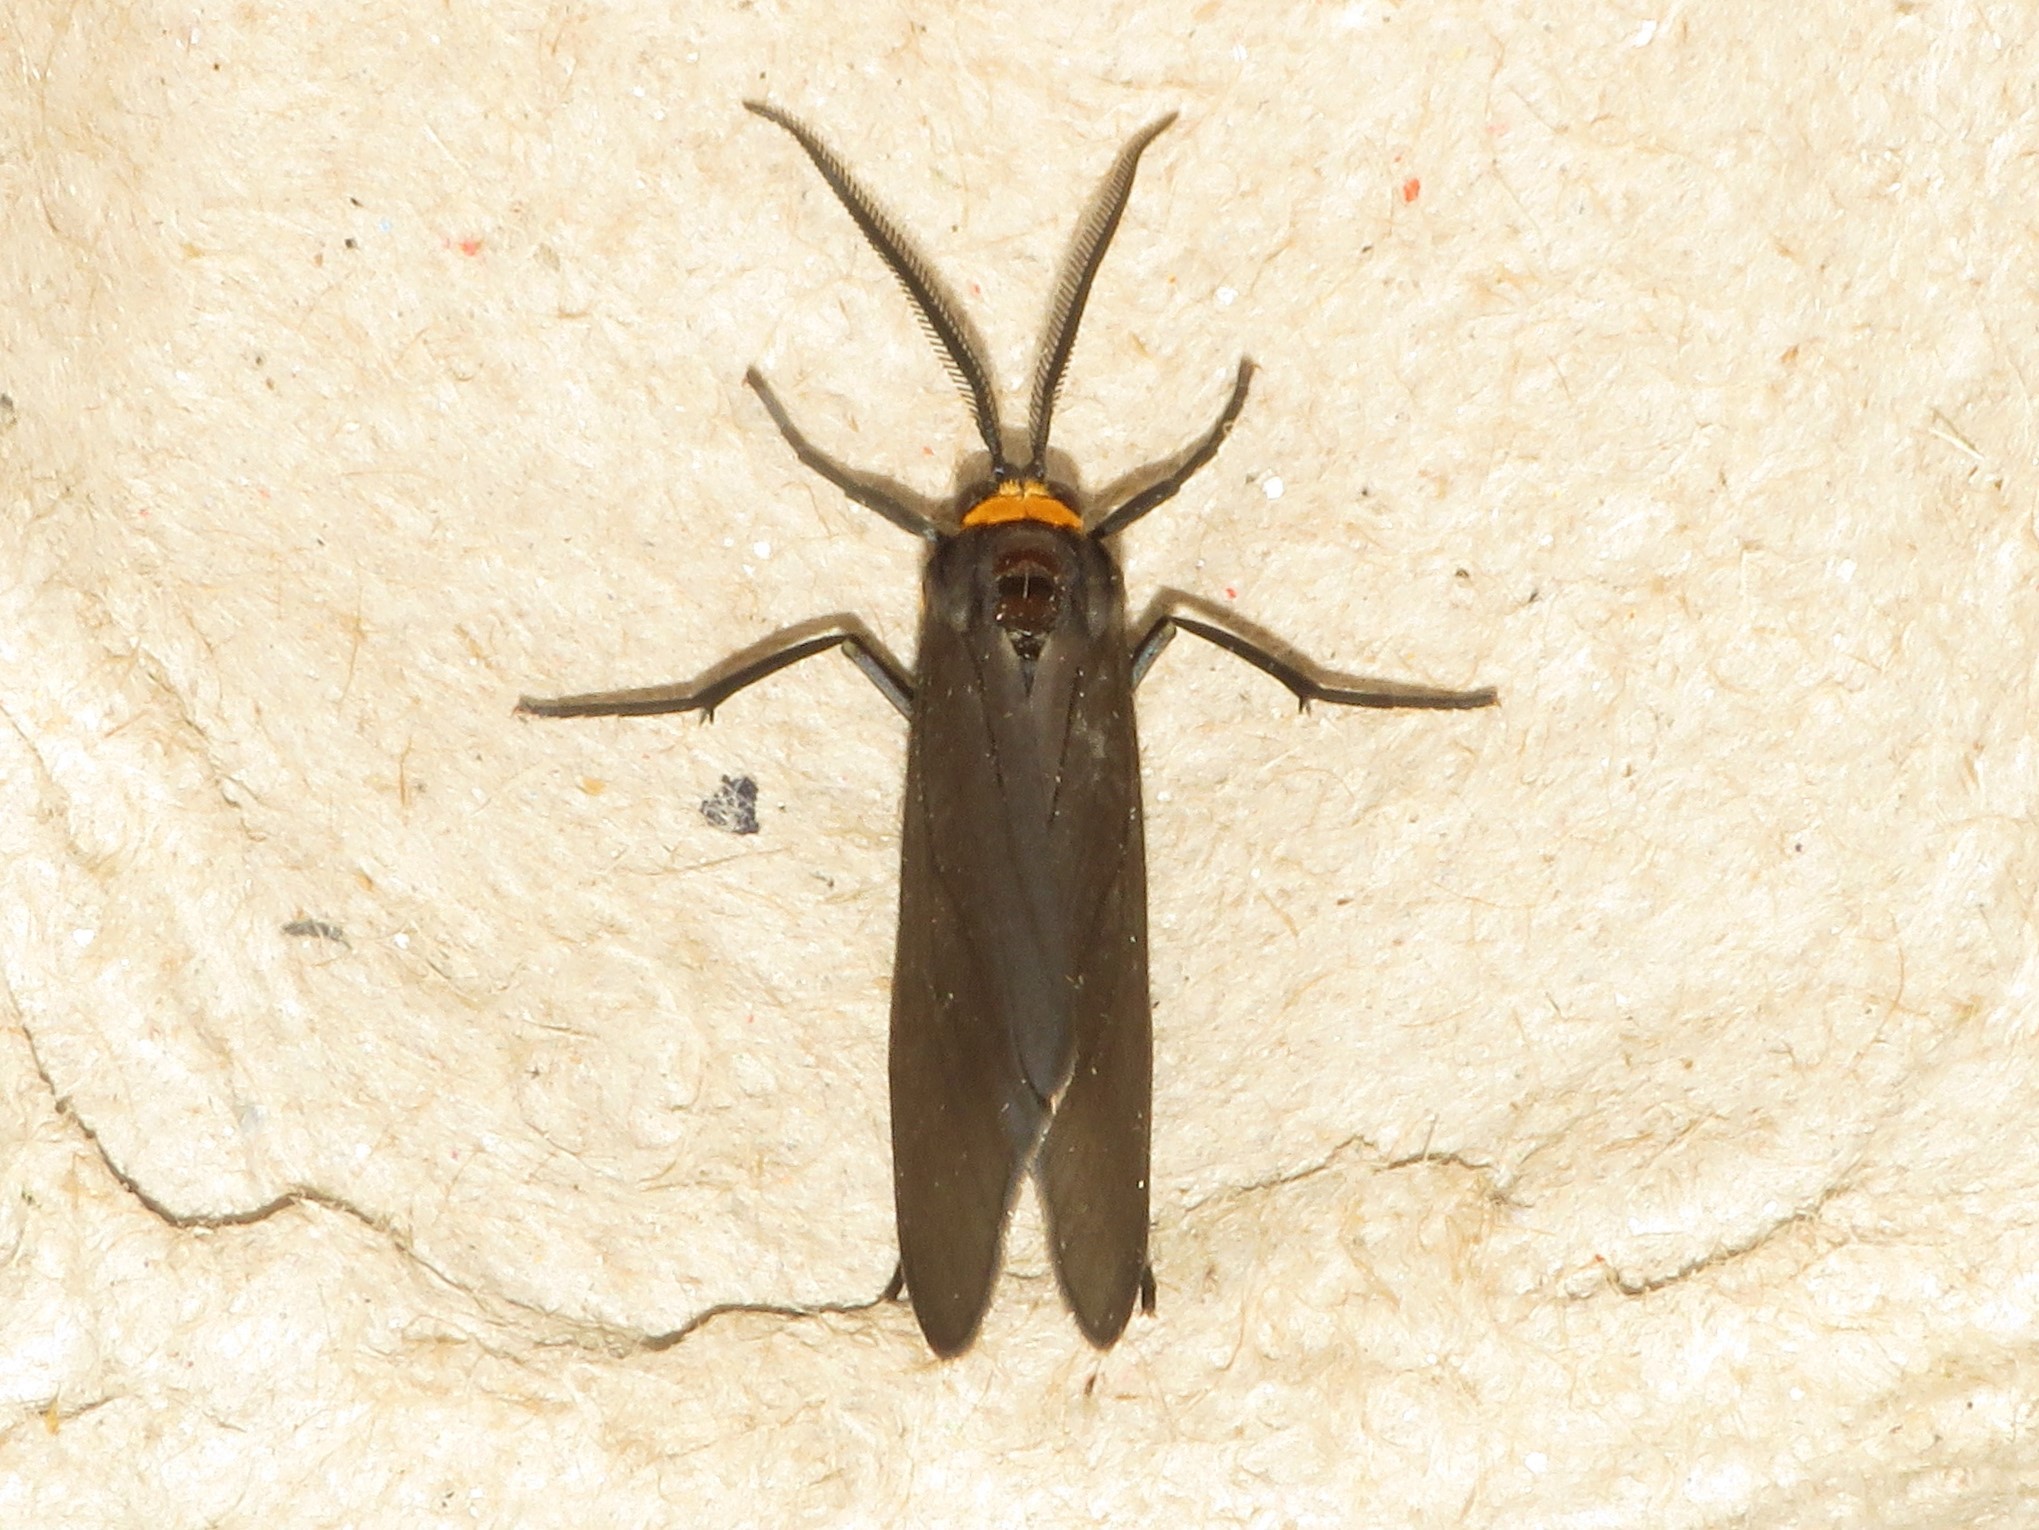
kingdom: Animalia
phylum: Arthropoda
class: Insecta
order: Lepidoptera
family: Erebidae
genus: Cisseps
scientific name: Cisseps fulvicollis
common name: Yellow-collared scape moth
